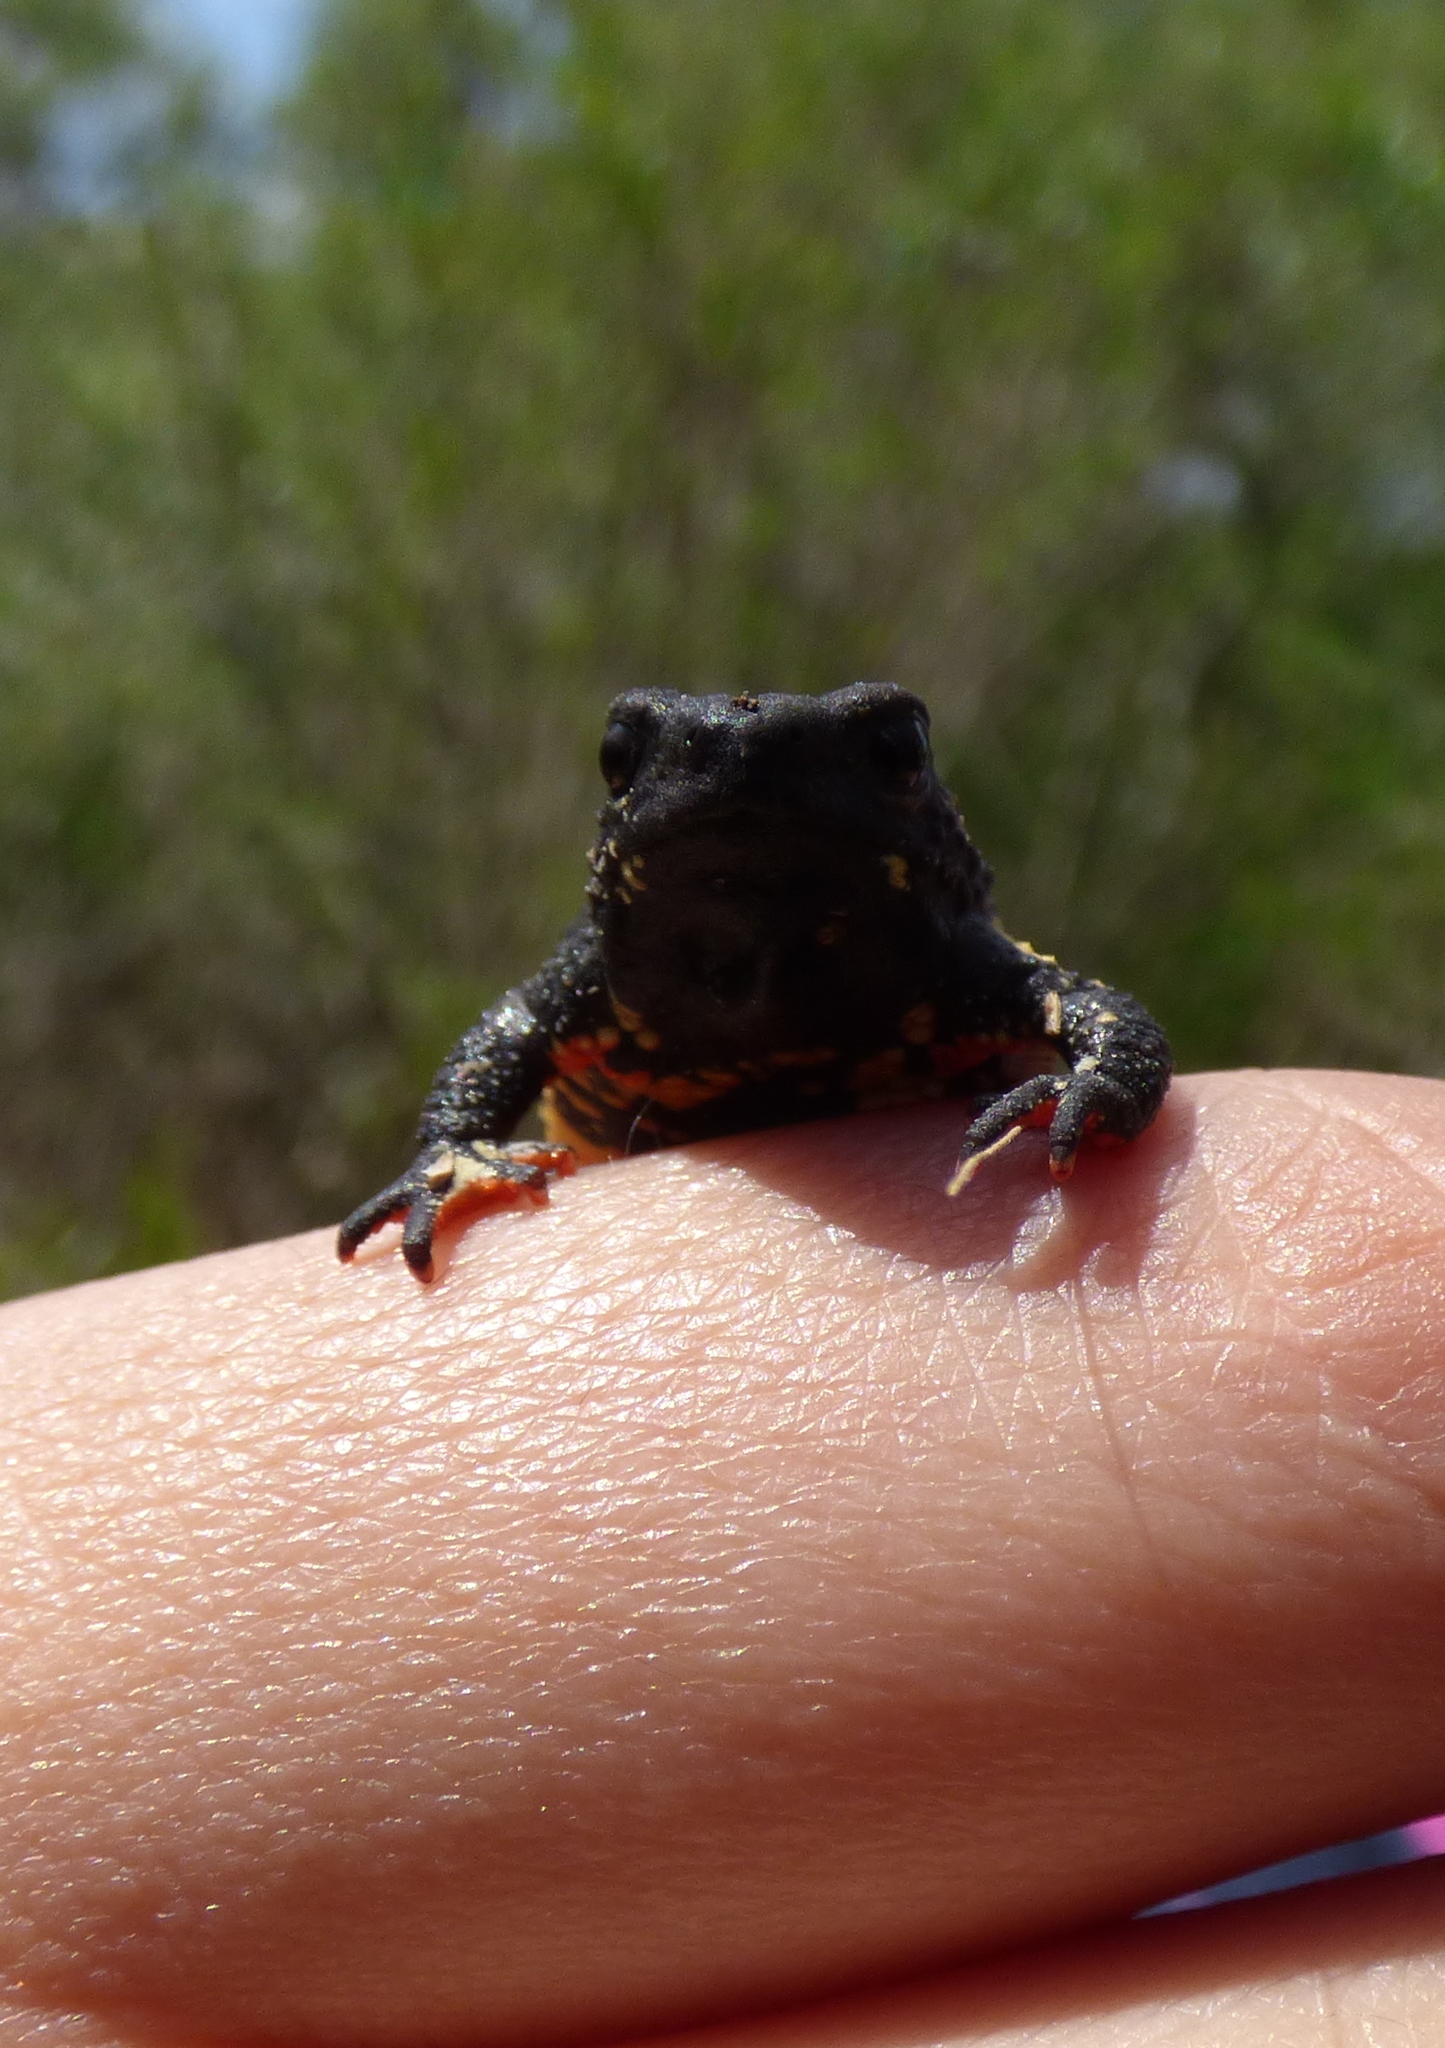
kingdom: Animalia
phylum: Chordata
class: Amphibia
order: Anura
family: Bufonidae
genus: Melanophryniscus
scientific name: Melanophryniscus
